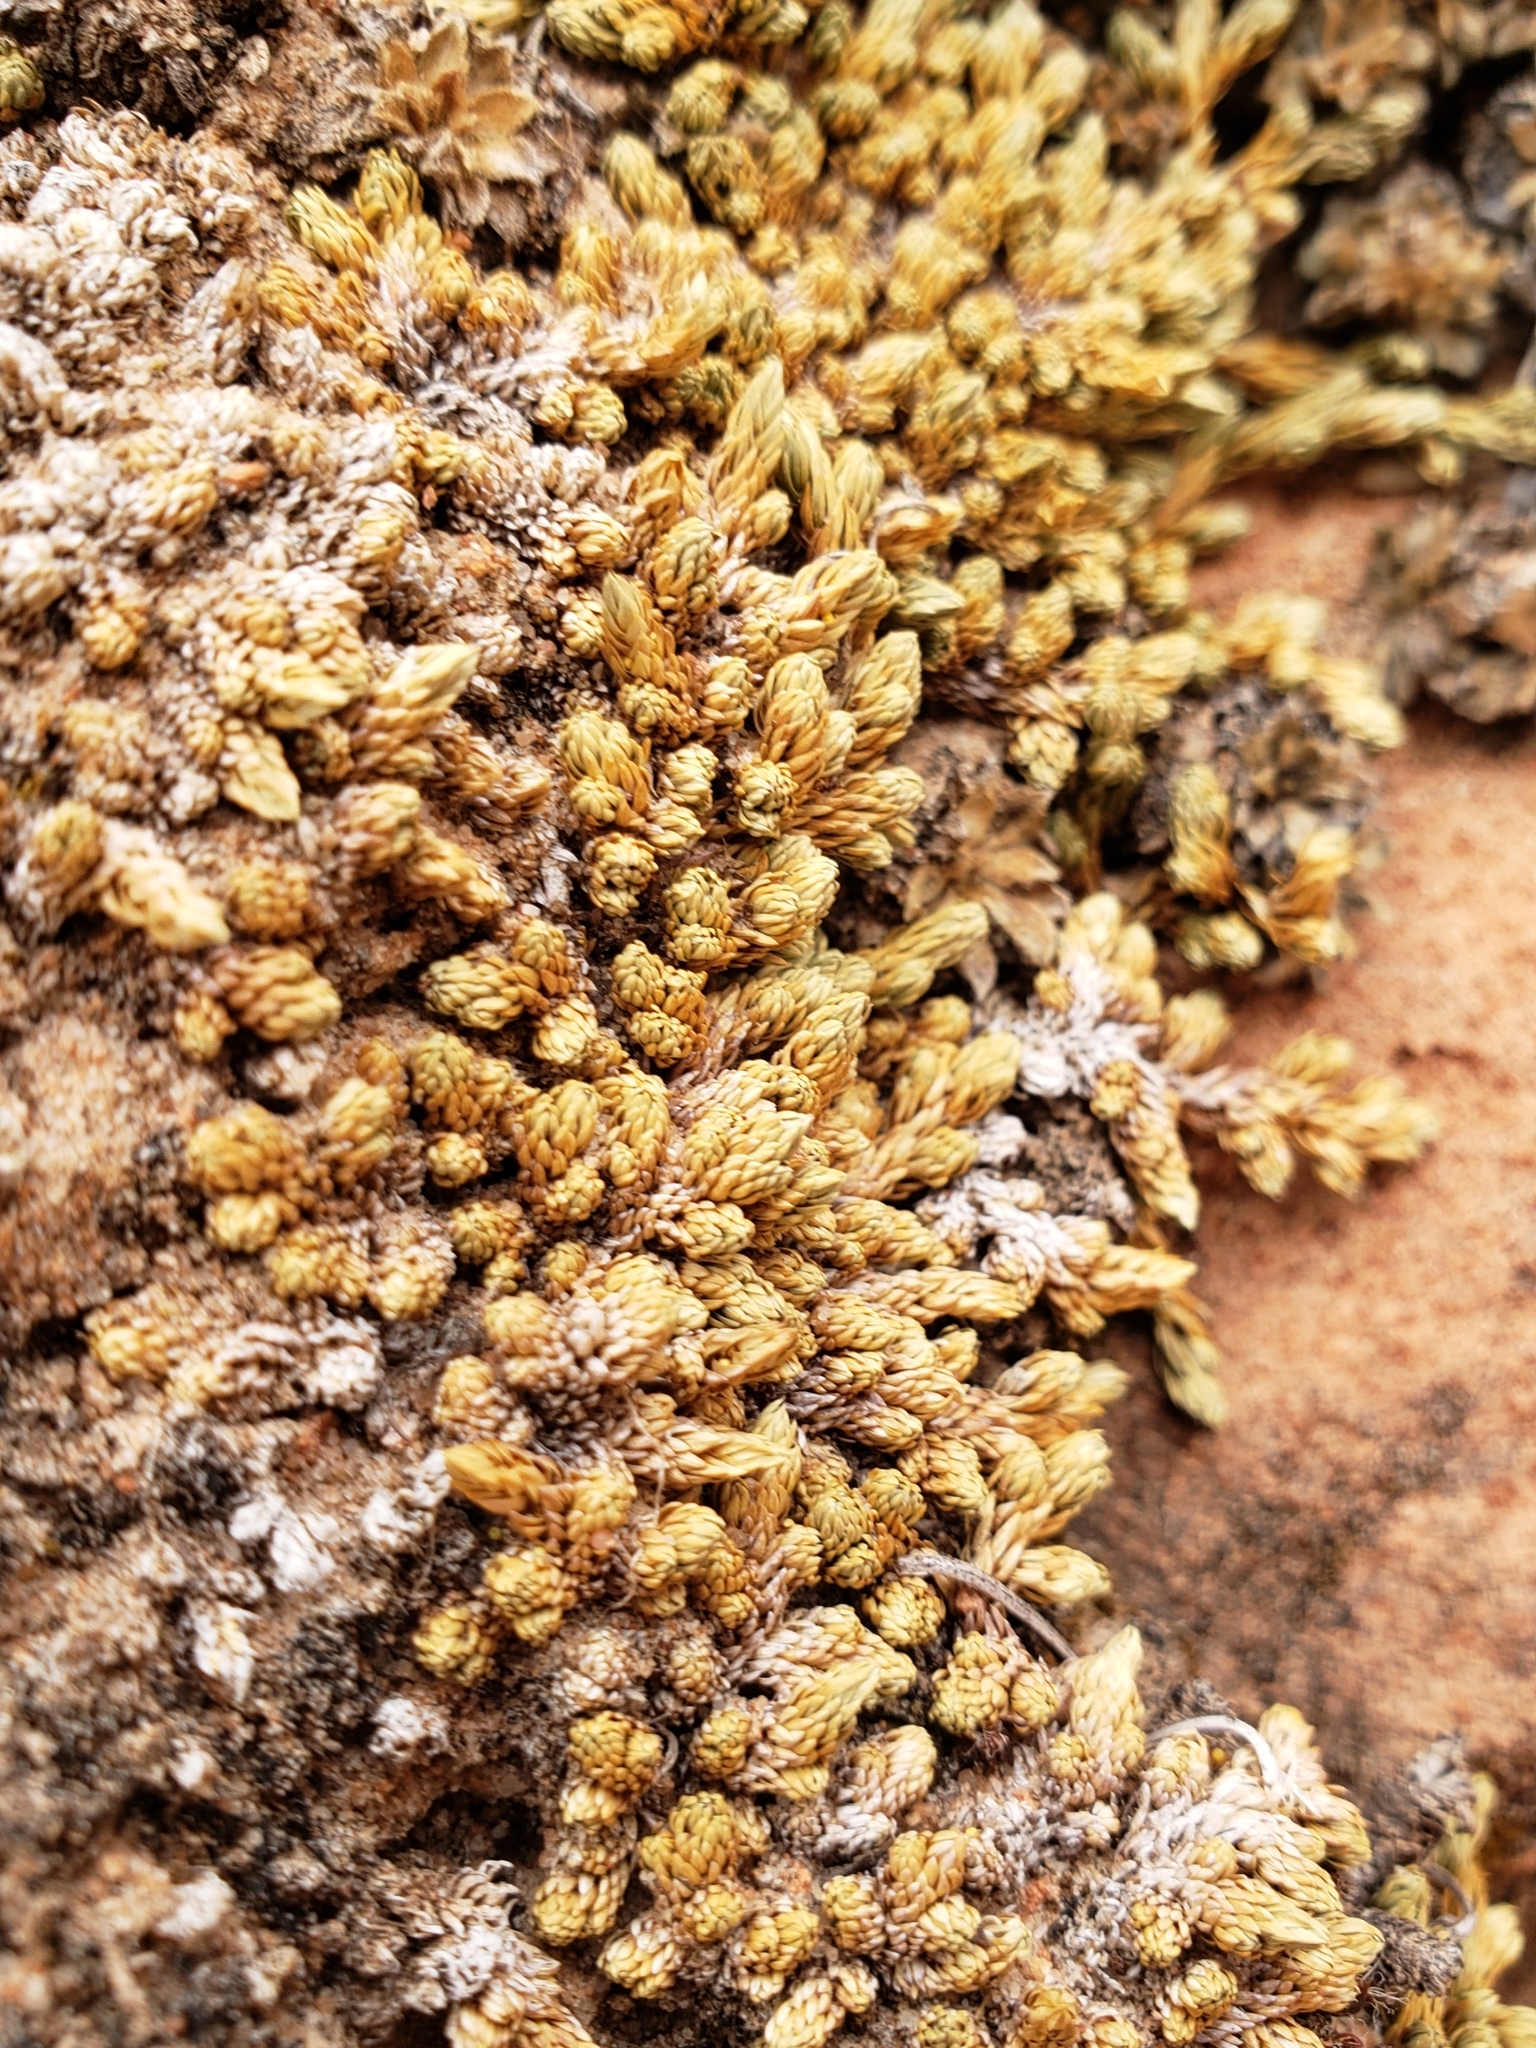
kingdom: Plantae
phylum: Tracheophyta
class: Lycopodiopsida
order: Selaginellales
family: Selaginellaceae
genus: Selaginella
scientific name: Selaginella utahensis
